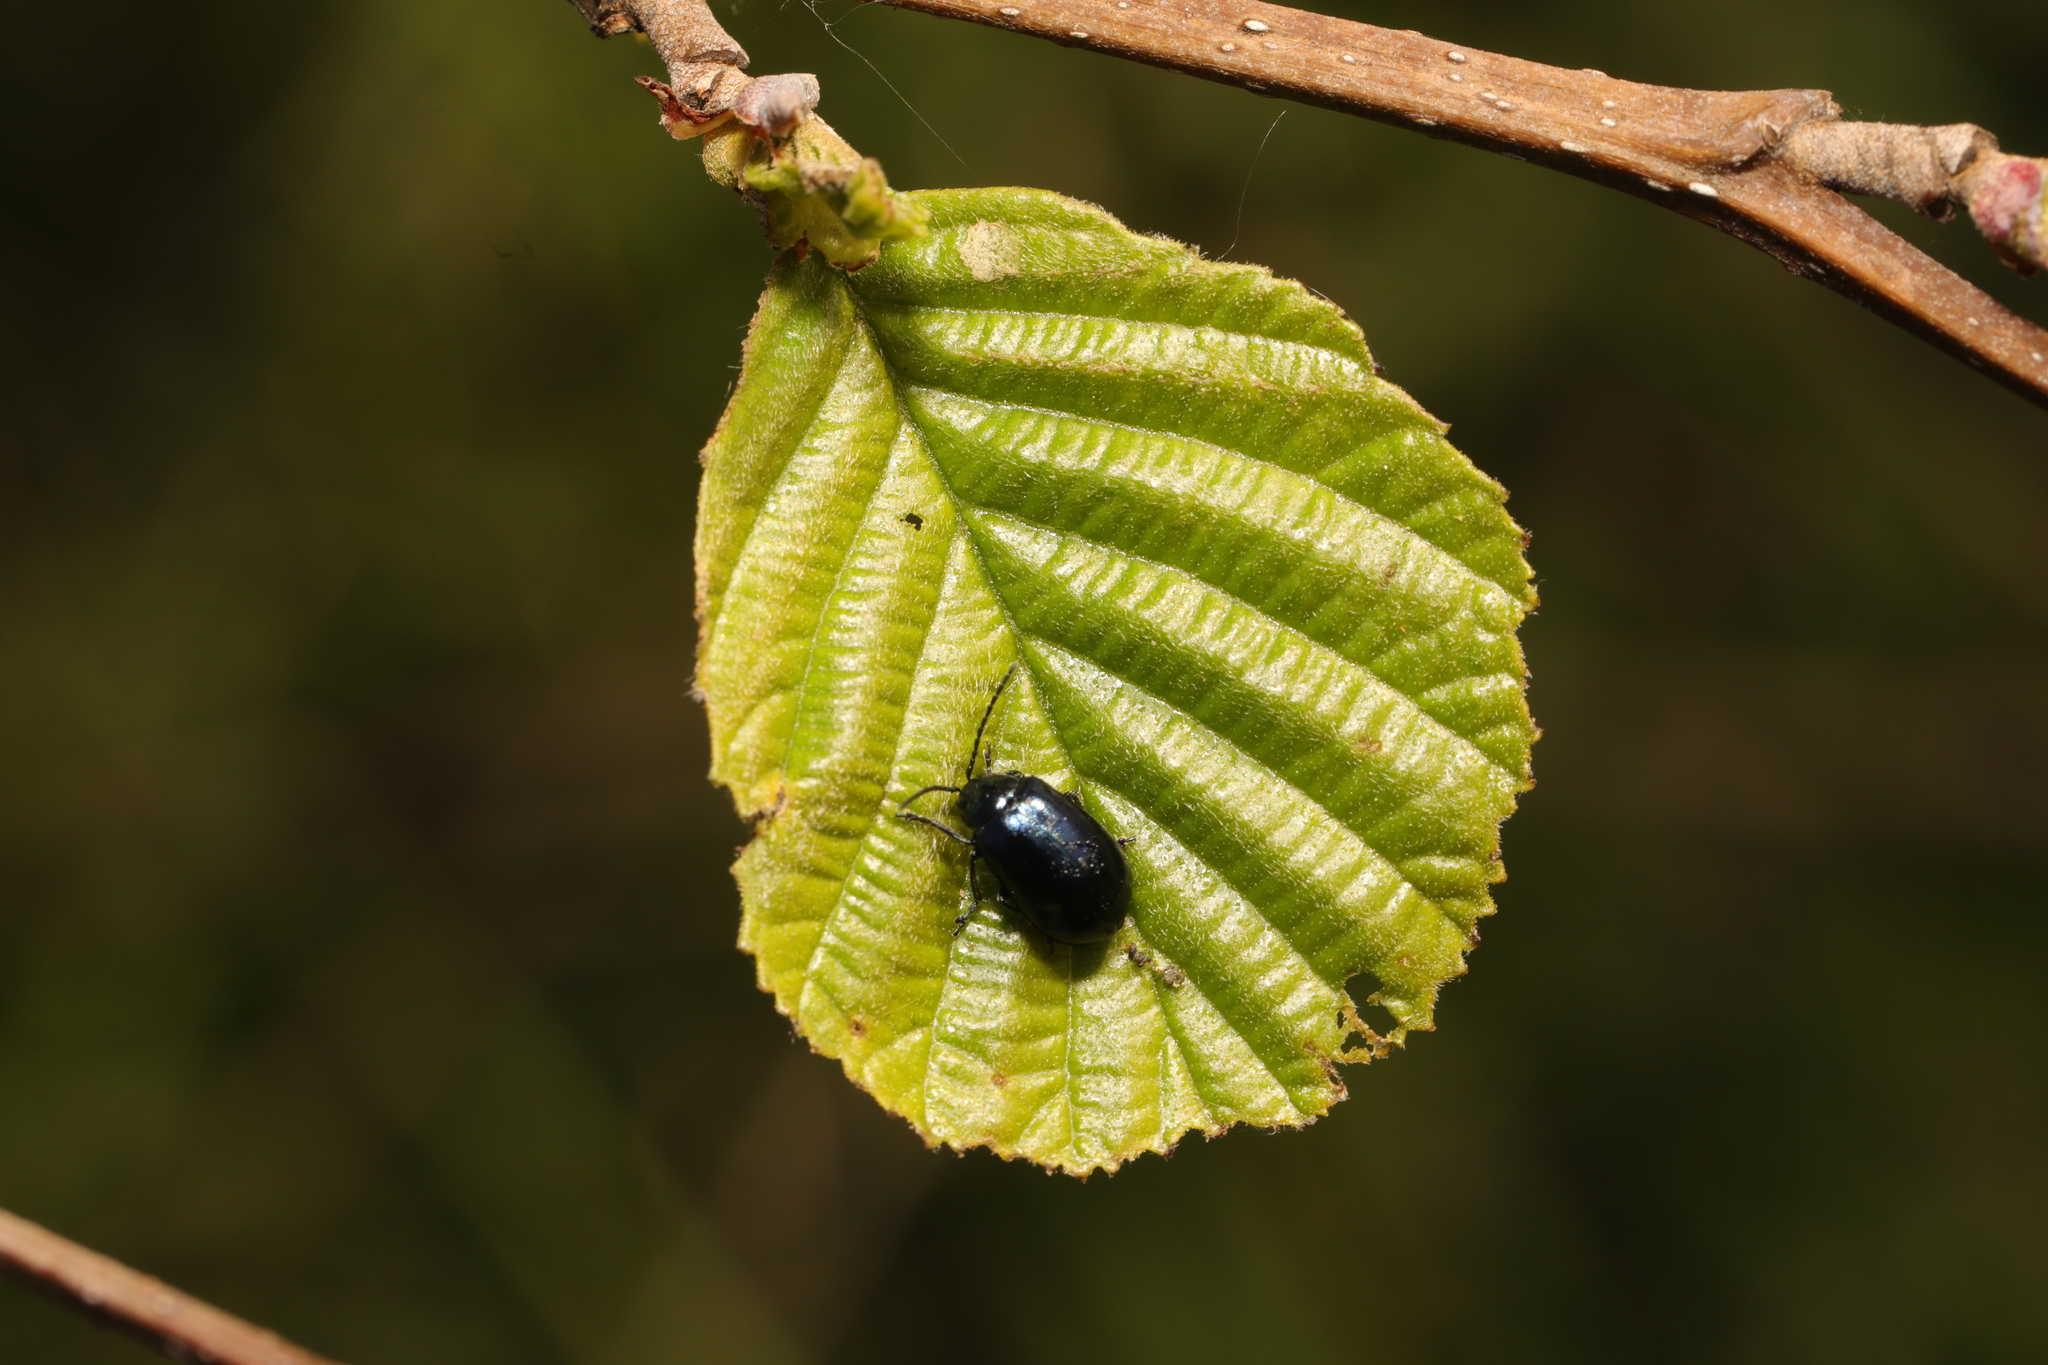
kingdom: Animalia
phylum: Arthropoda
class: Insecta
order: Coleoptera
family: Chrysomelidae
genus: Agelastica
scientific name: Agelastica alni
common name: Alder leaf beetle
